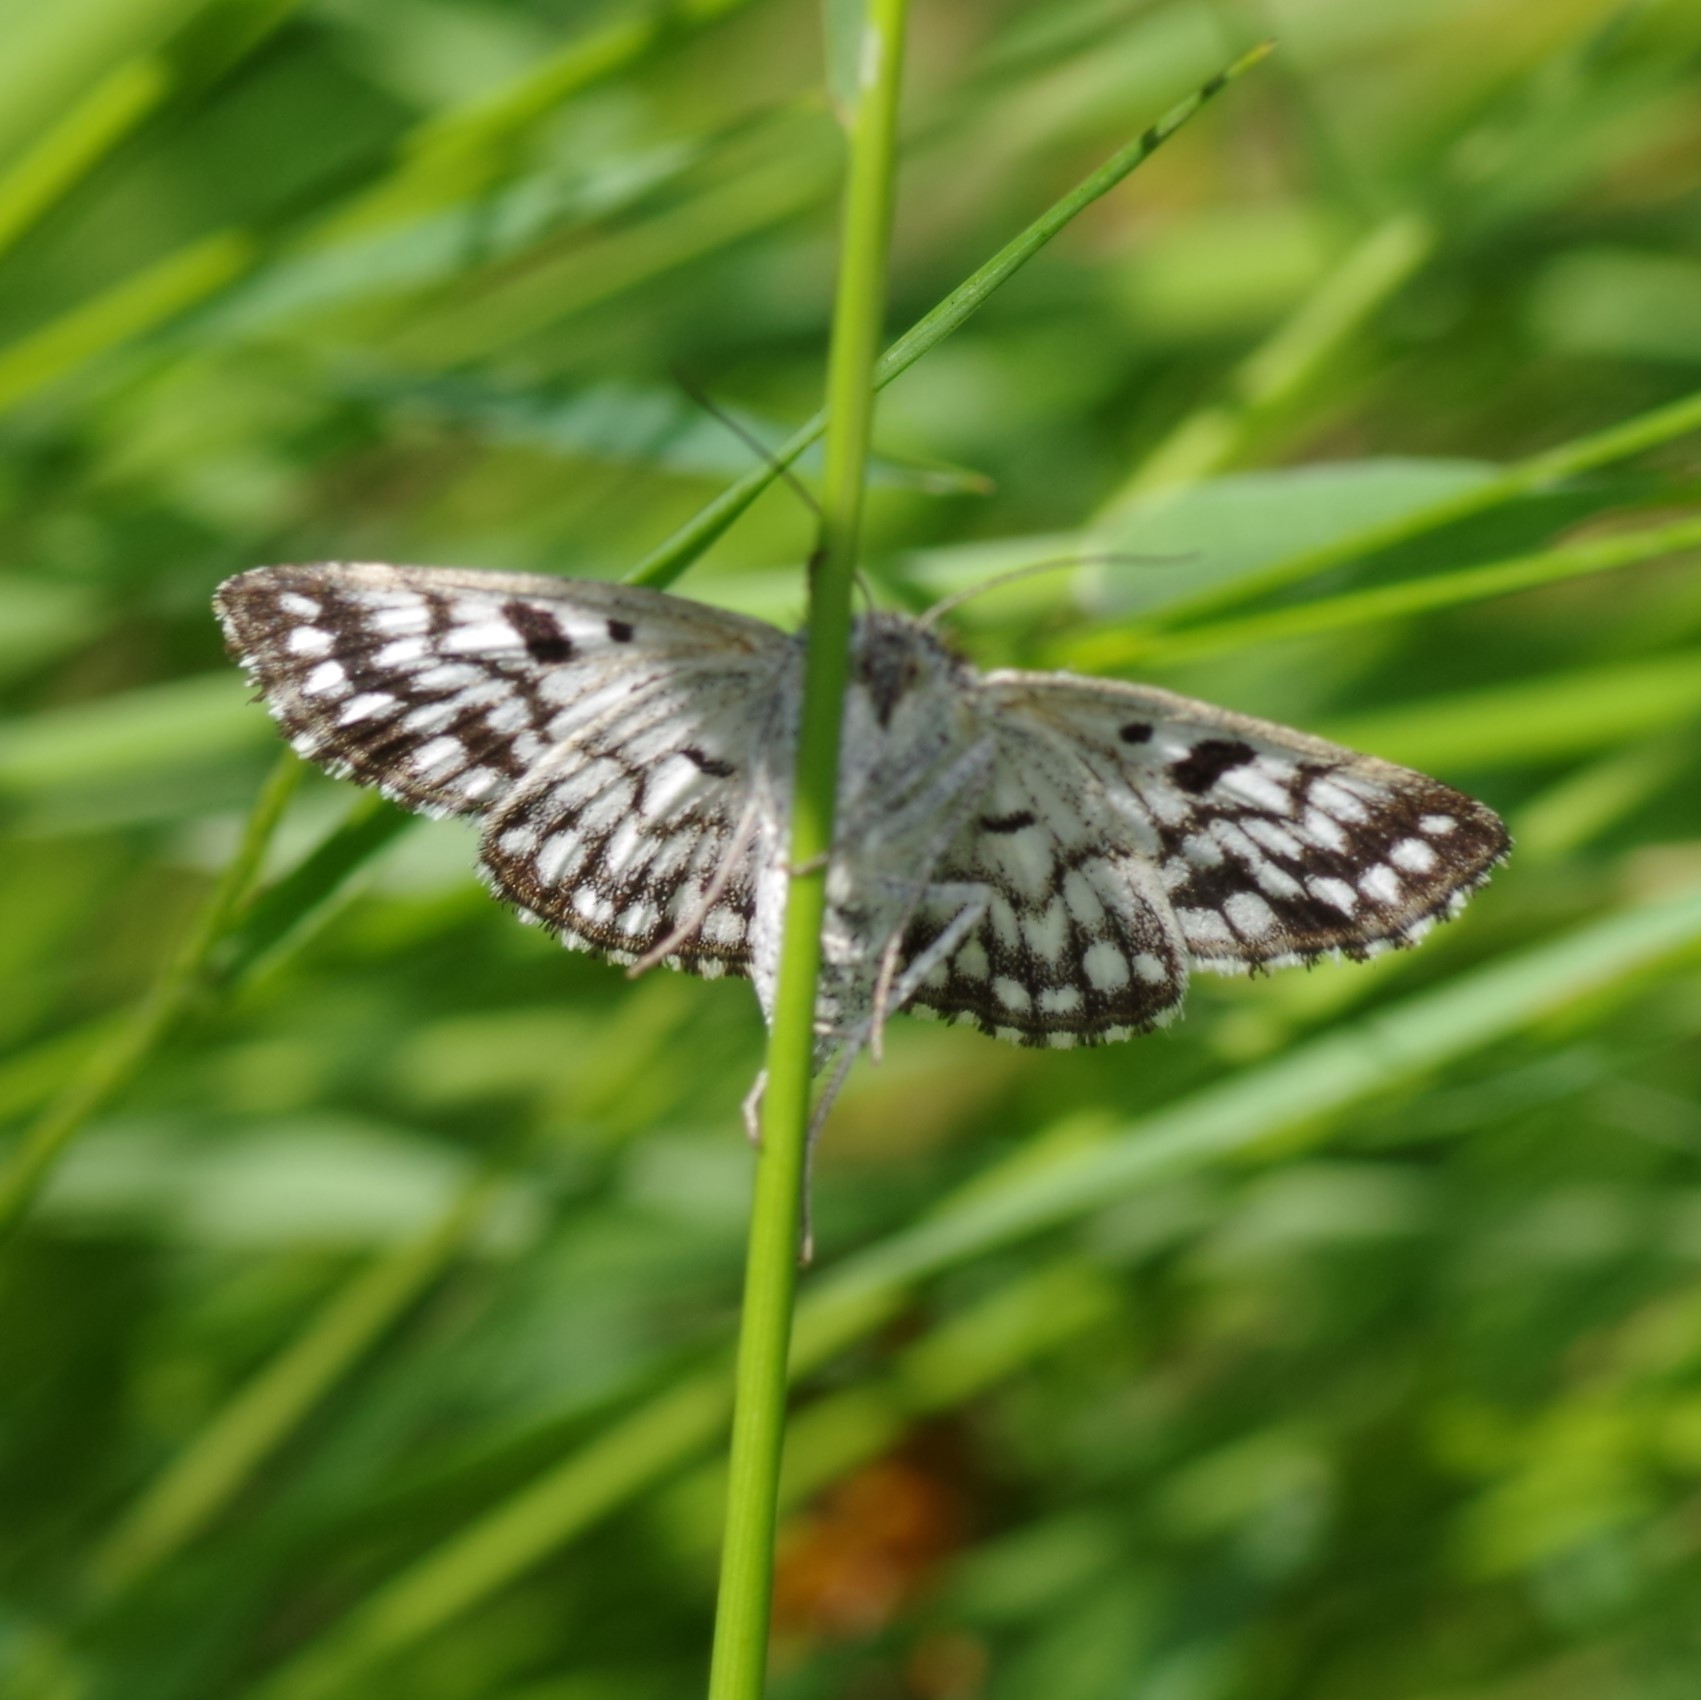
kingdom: Animalia
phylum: Arthropoda
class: Insecta
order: Lepidoptera
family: Erebidae
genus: Callistege
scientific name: Callistege mi
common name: Mother shipton
